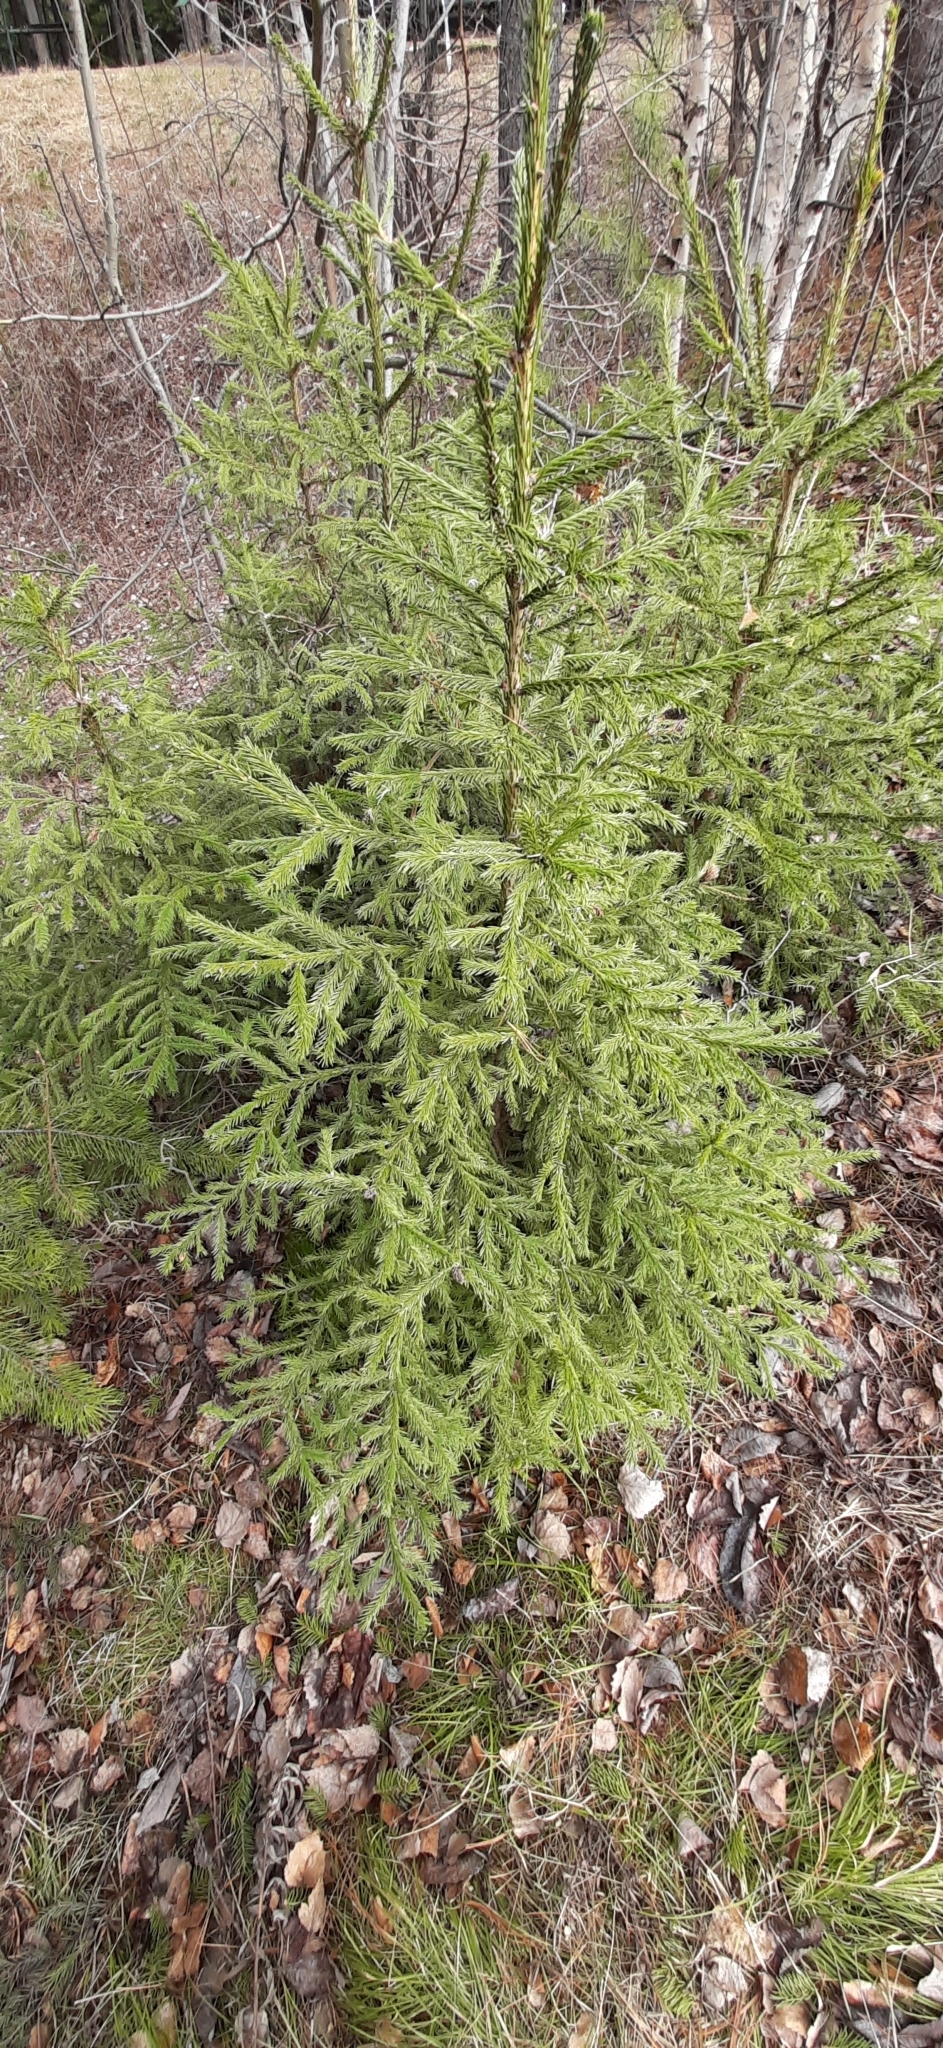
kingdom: Plantae
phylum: Tracheophyta
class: Pinopsida
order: Pinales
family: Pinaceae
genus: Picea
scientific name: Picea obovata
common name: Siberian spruce
